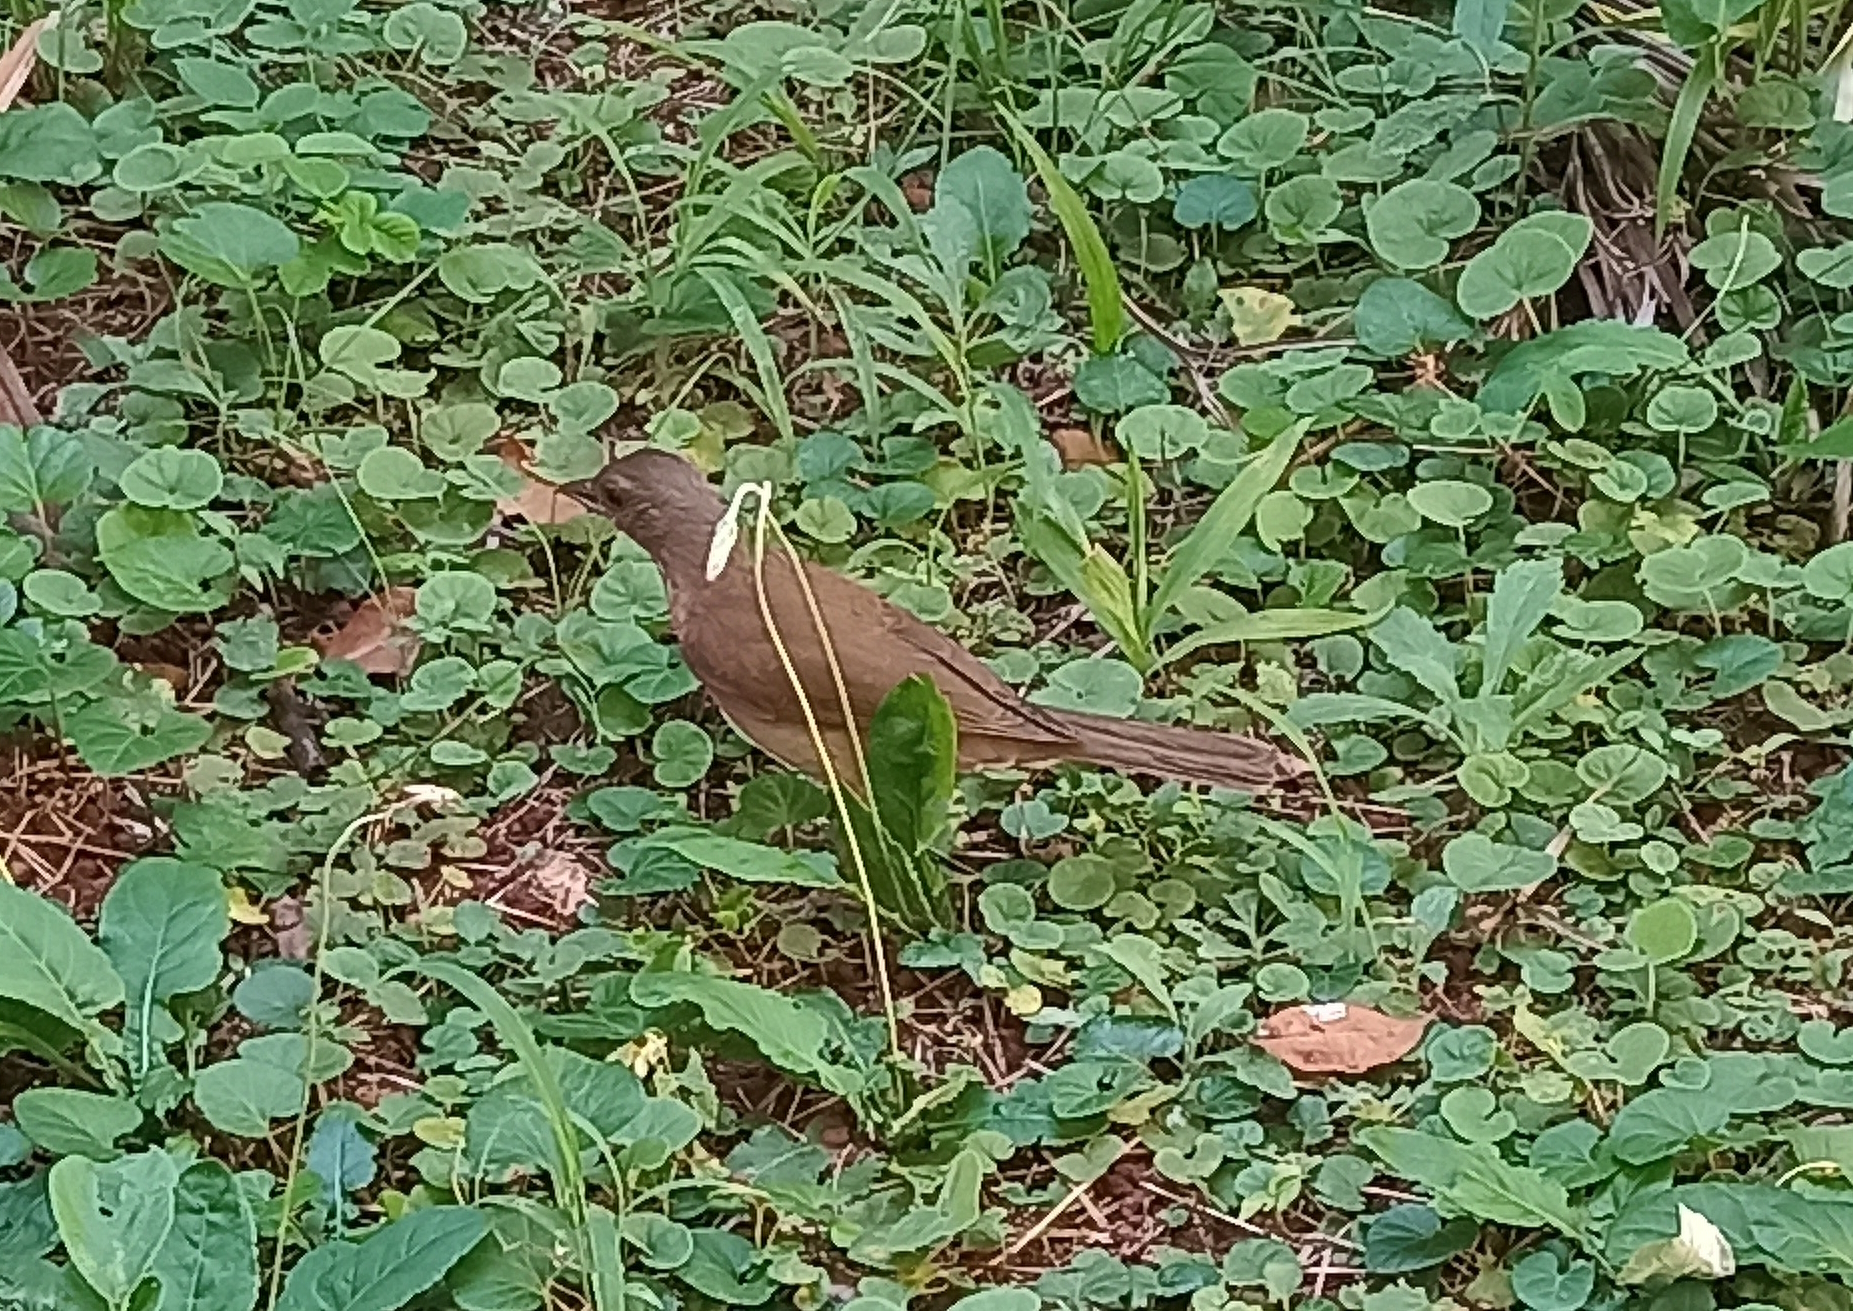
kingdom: Animalia
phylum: Chordata
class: Aves
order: Passeriformes
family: Turdidae
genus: Turdus
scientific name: Turdus leucomelas
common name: Pale-breasted thrush
